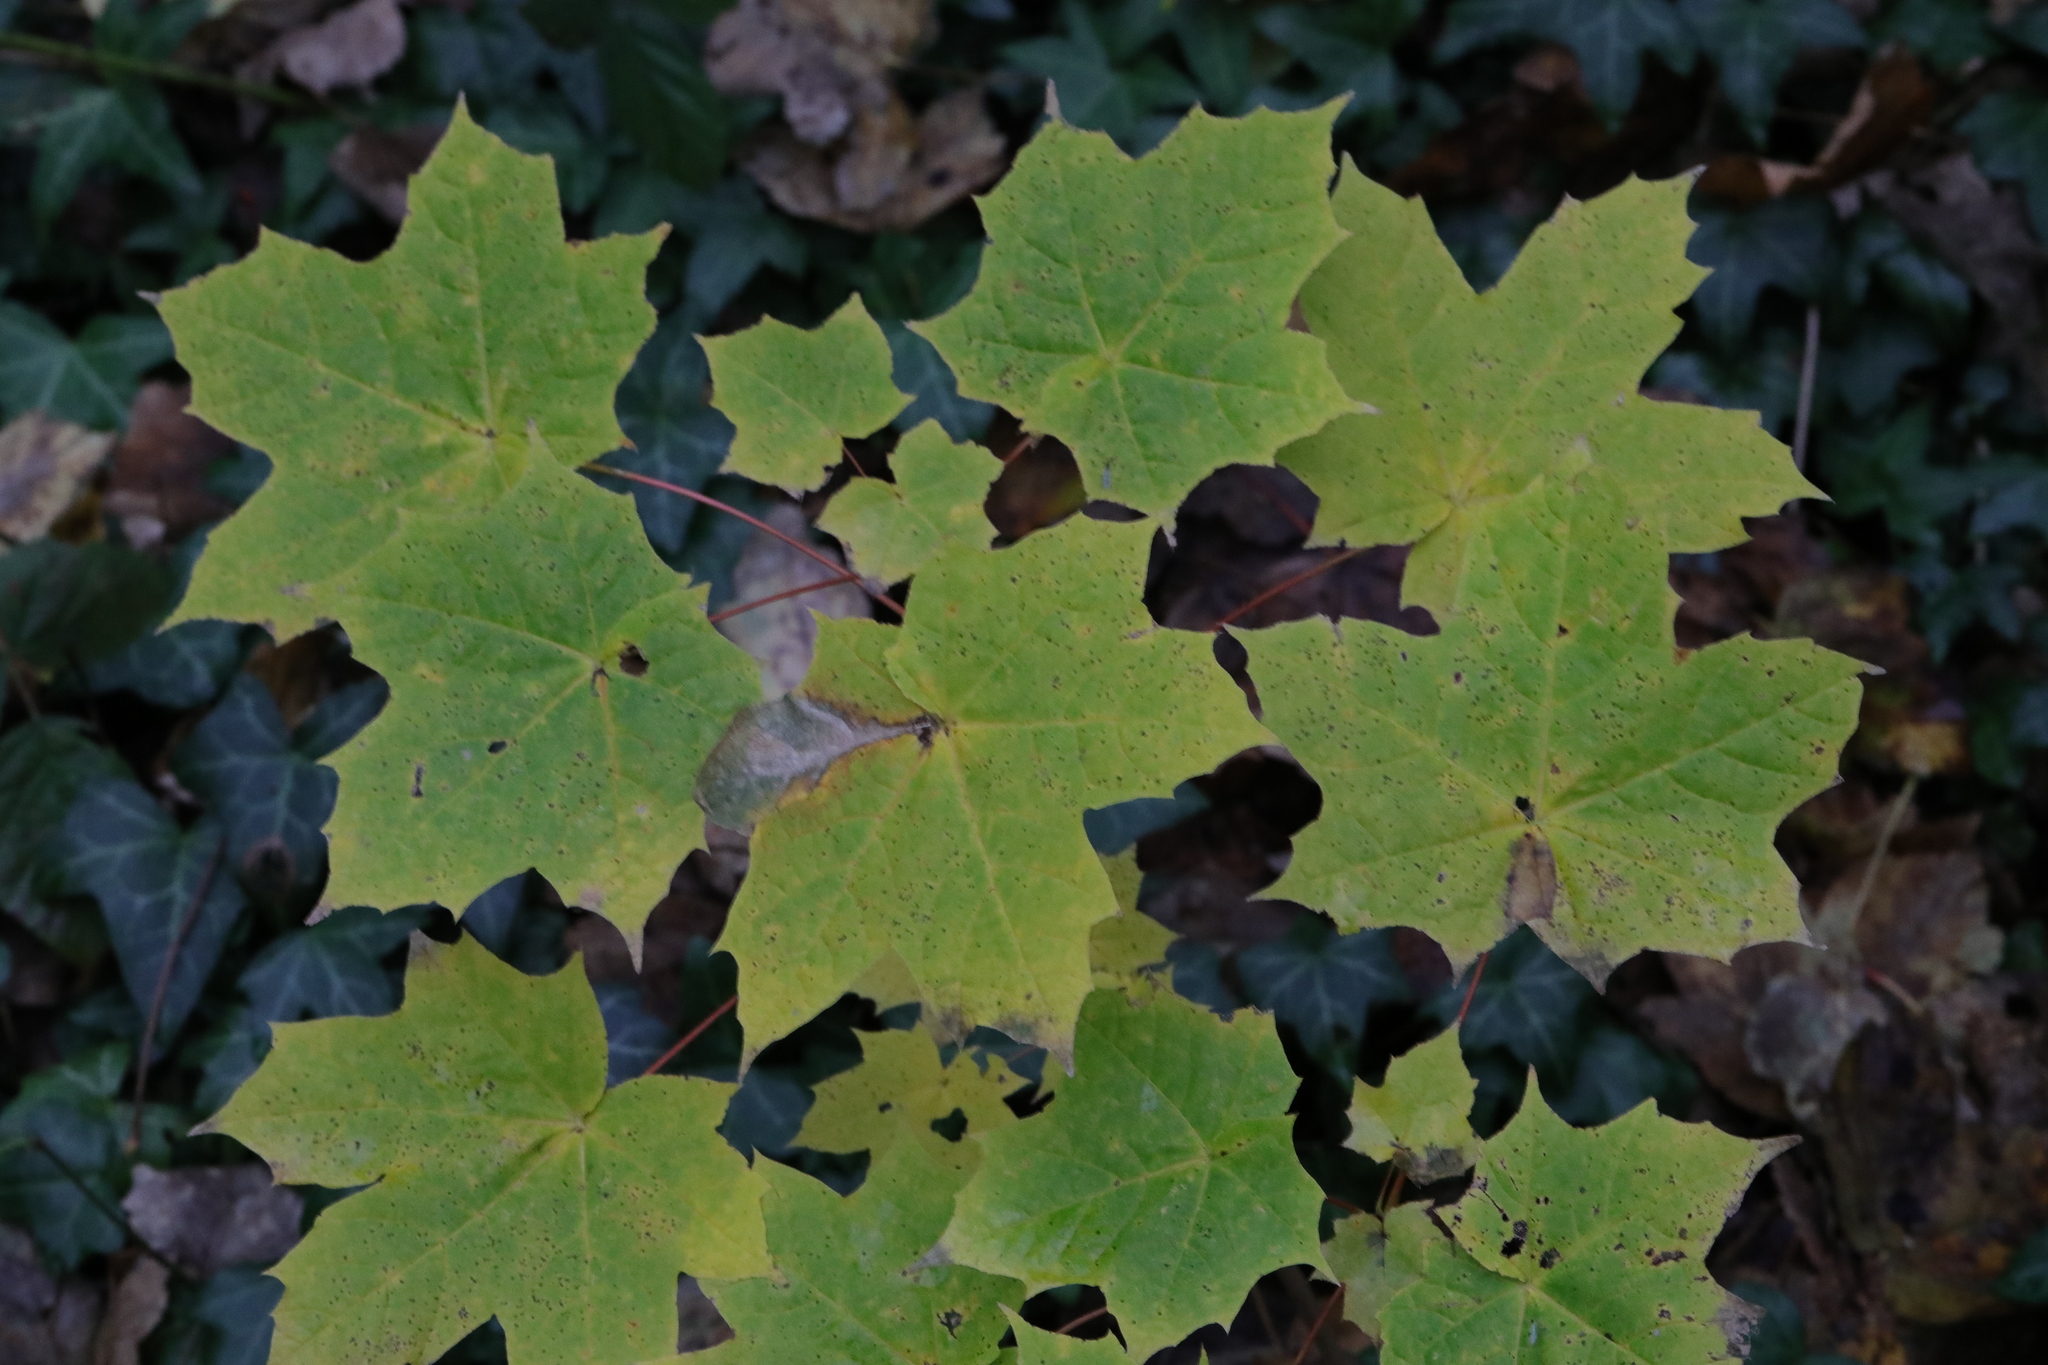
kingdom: Plantae
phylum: Tracheophyta
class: Magnoliopsida
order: Sapindales
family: Sapindaceae
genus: Acer
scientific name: Acer platanoides
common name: Norway maple
